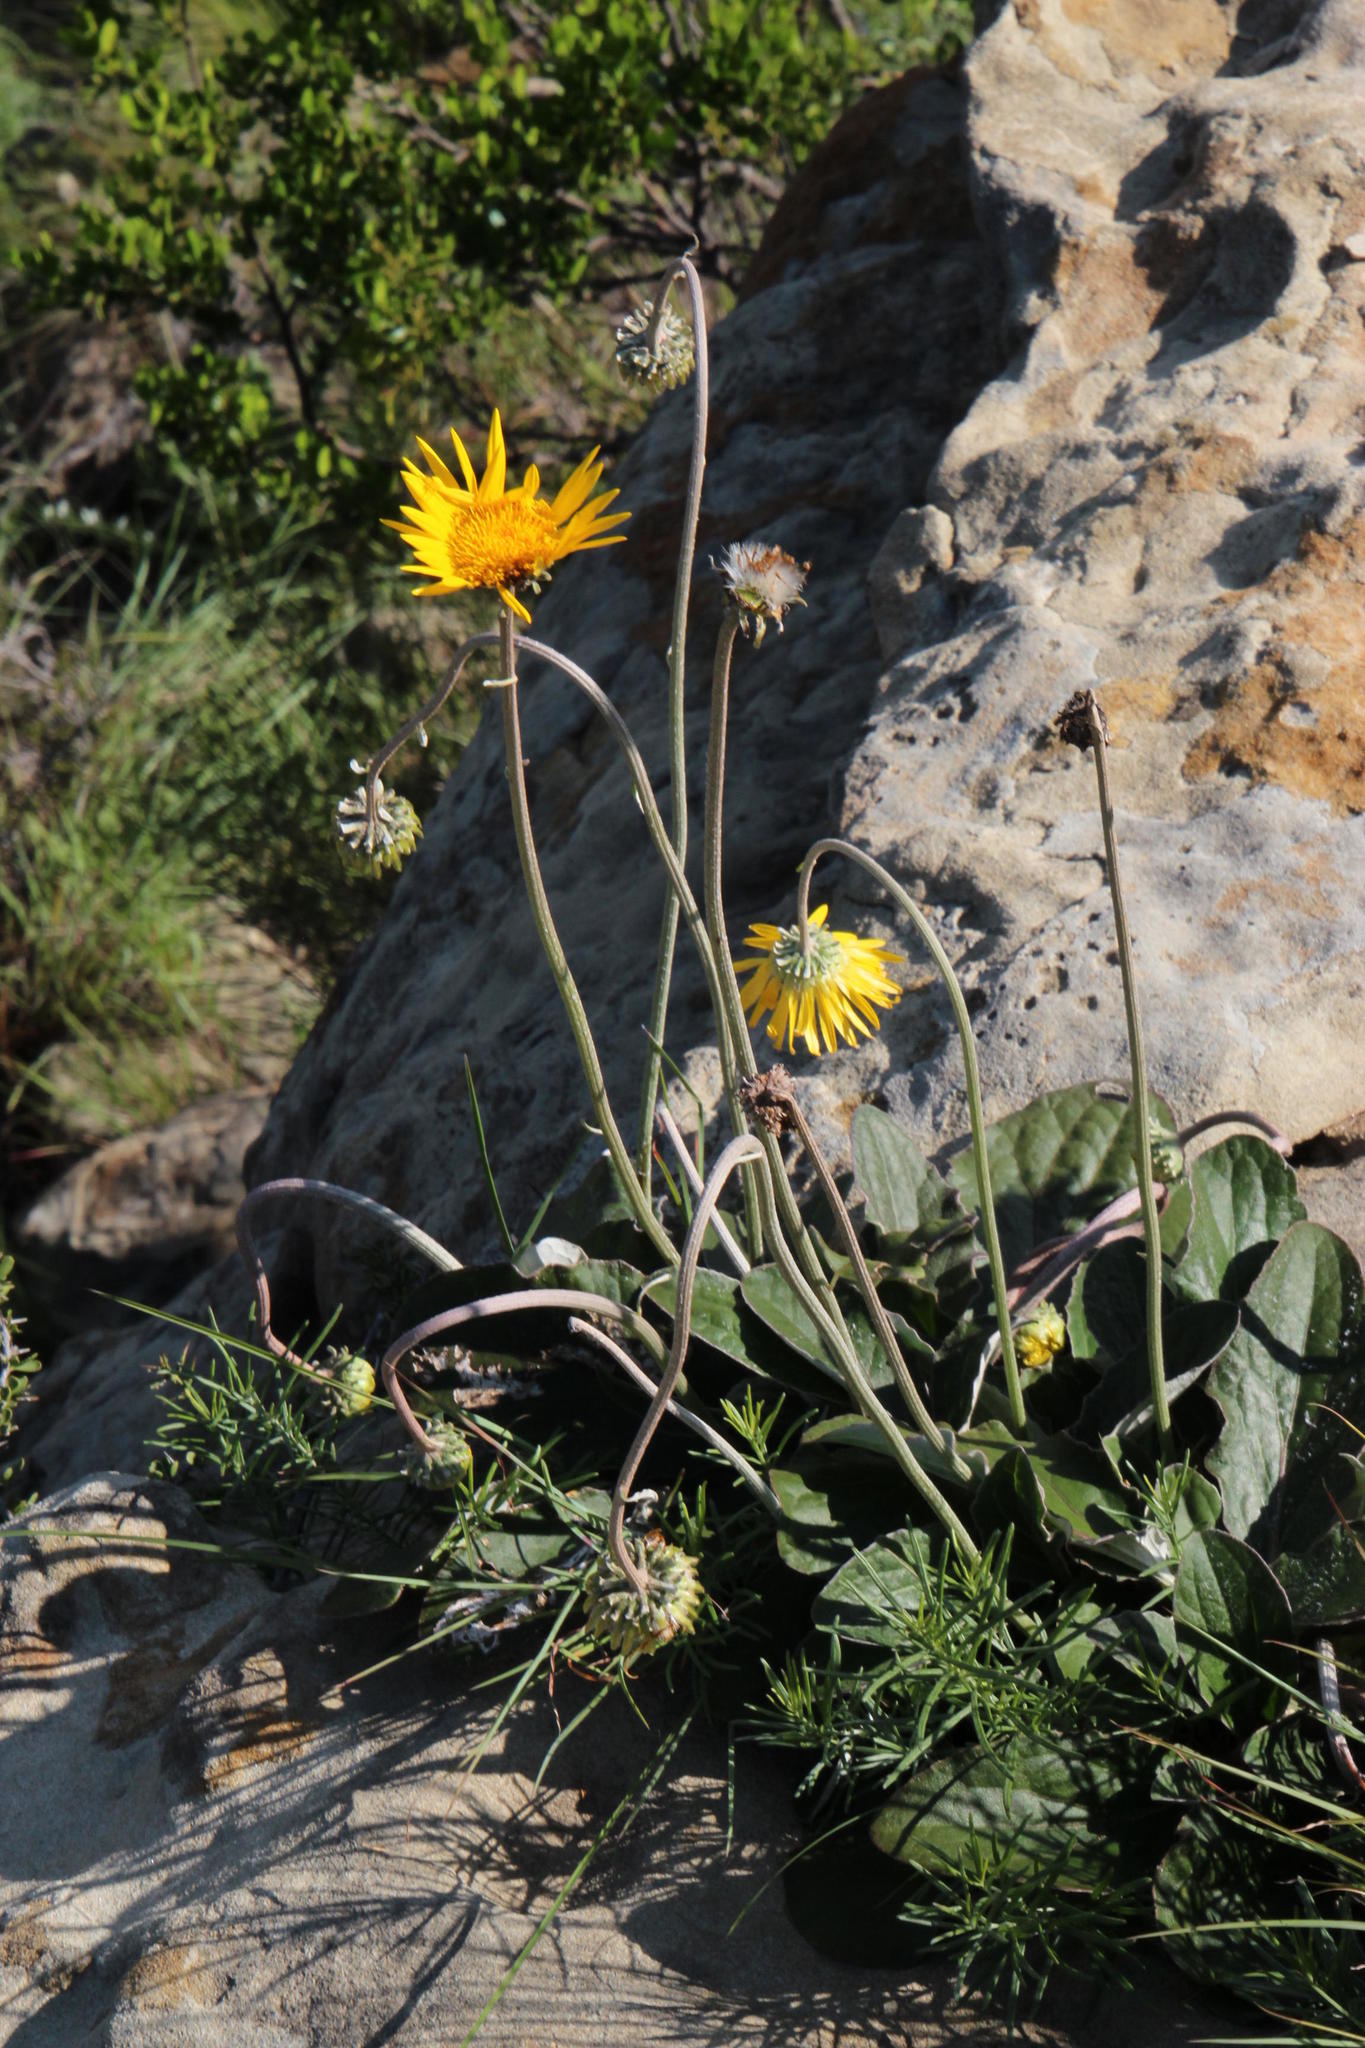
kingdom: Plantae
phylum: Tracheophyta
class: Magnoliopsida
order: Asterales
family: Asteraceae
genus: Haplocarpha
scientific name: Haplocarpha scaposa
